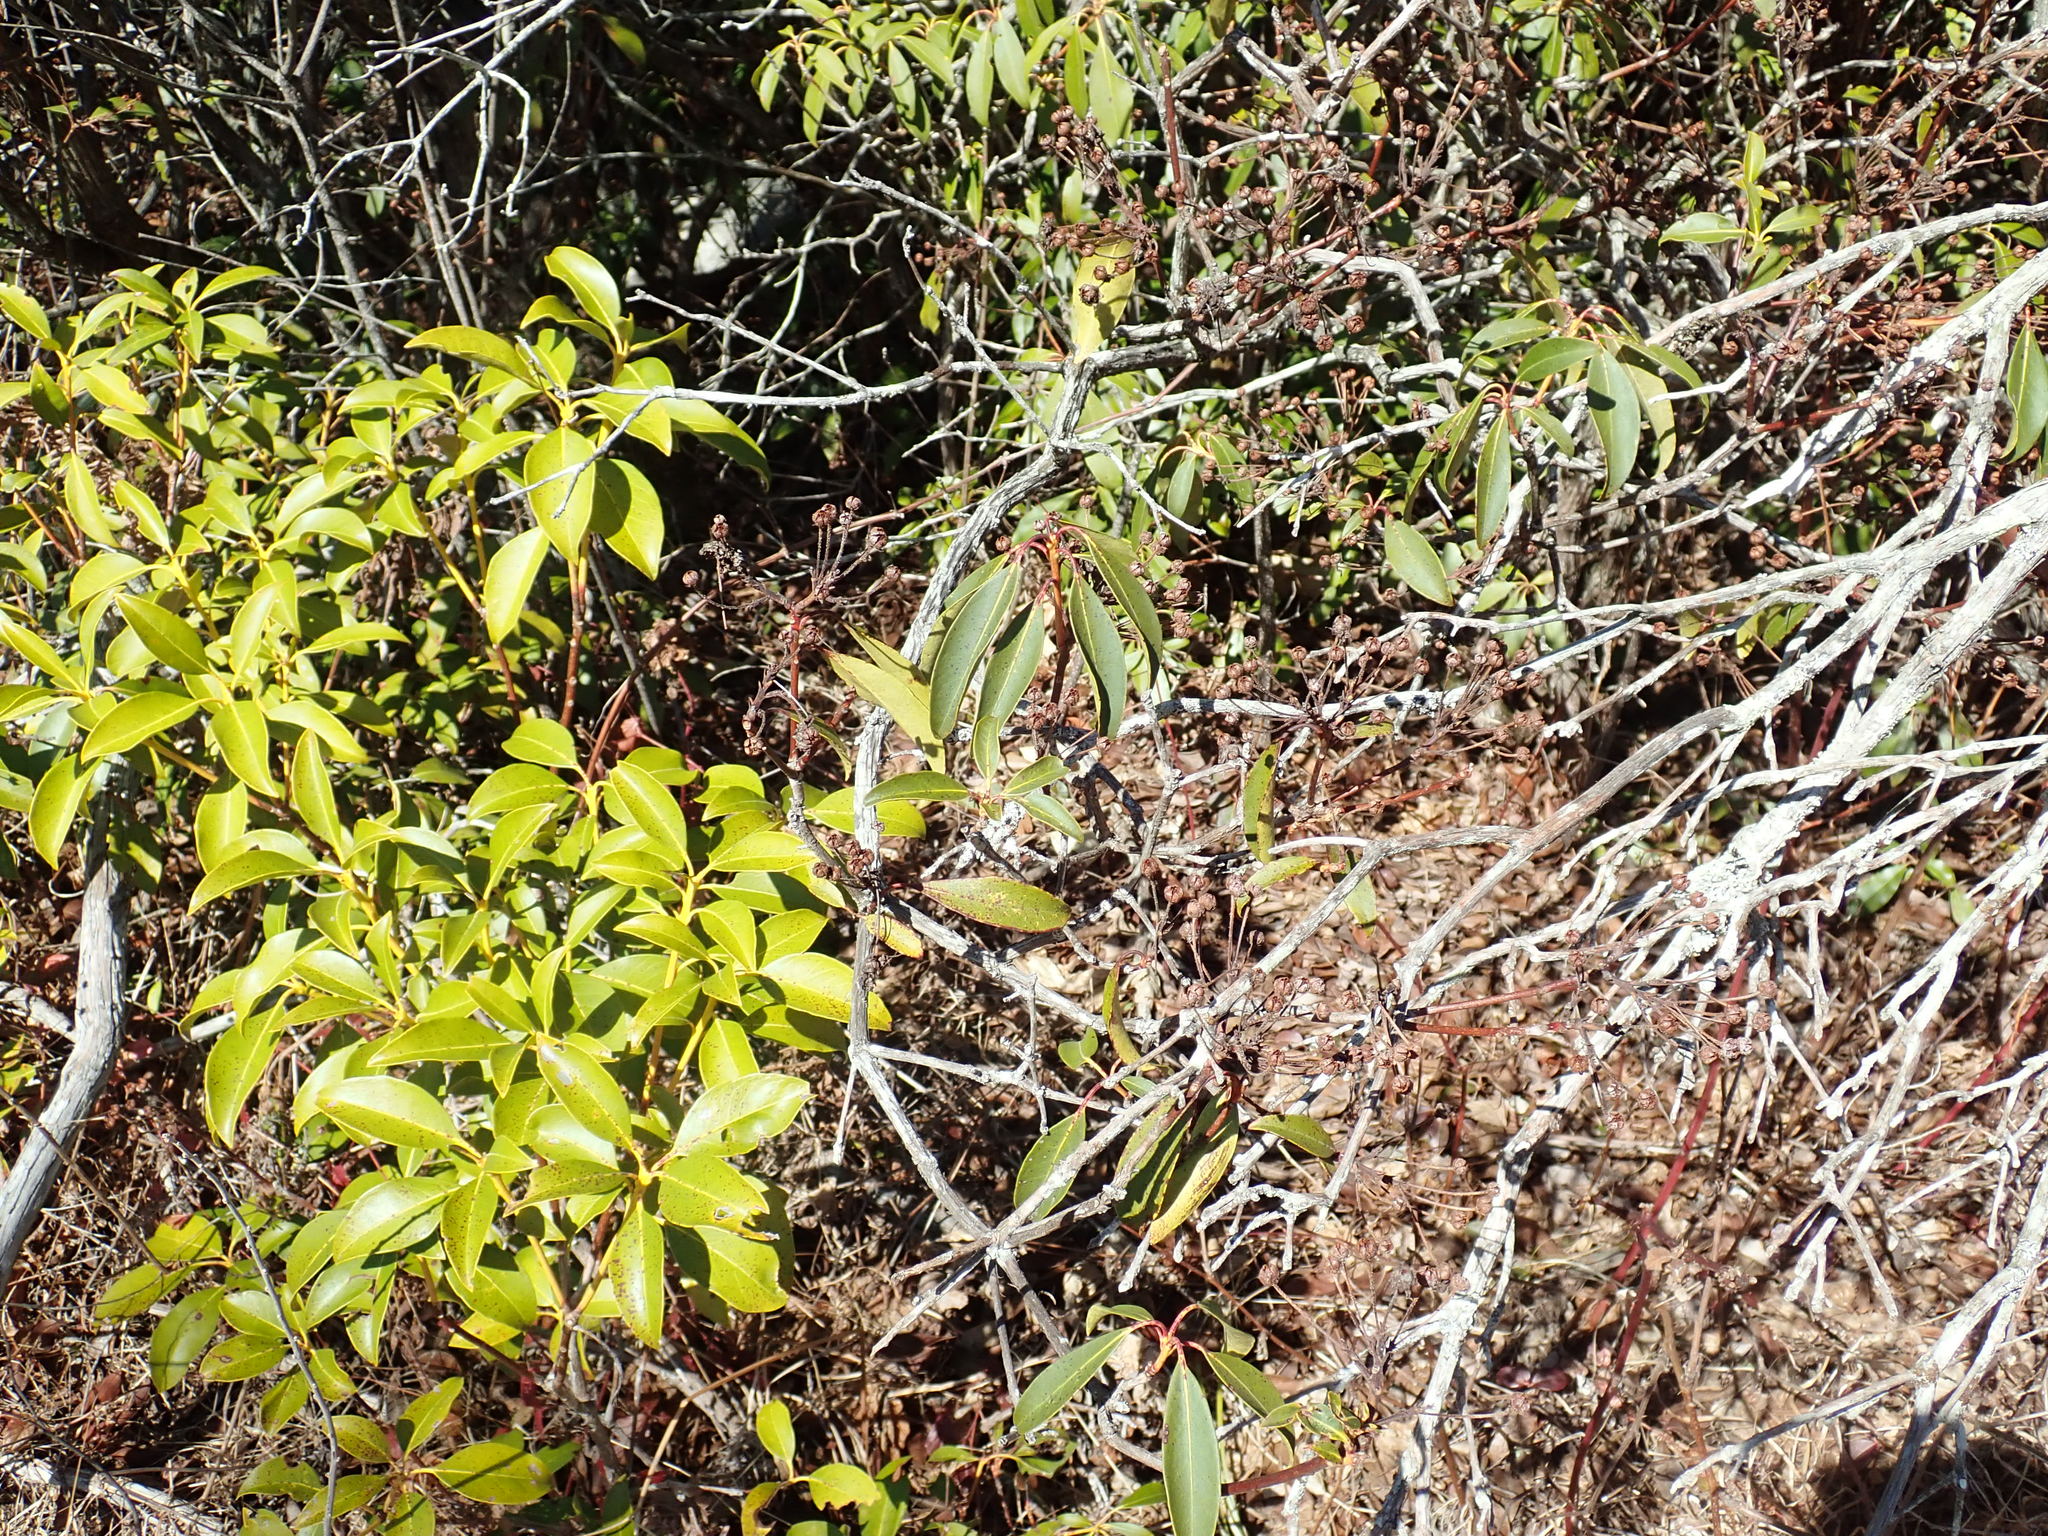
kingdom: Plantae
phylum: Tracheophyta
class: Magnoliopsida
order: Ericales
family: Ericaceae
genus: Kalmia
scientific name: Kalmia latifolia
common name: Mountain-laurel
